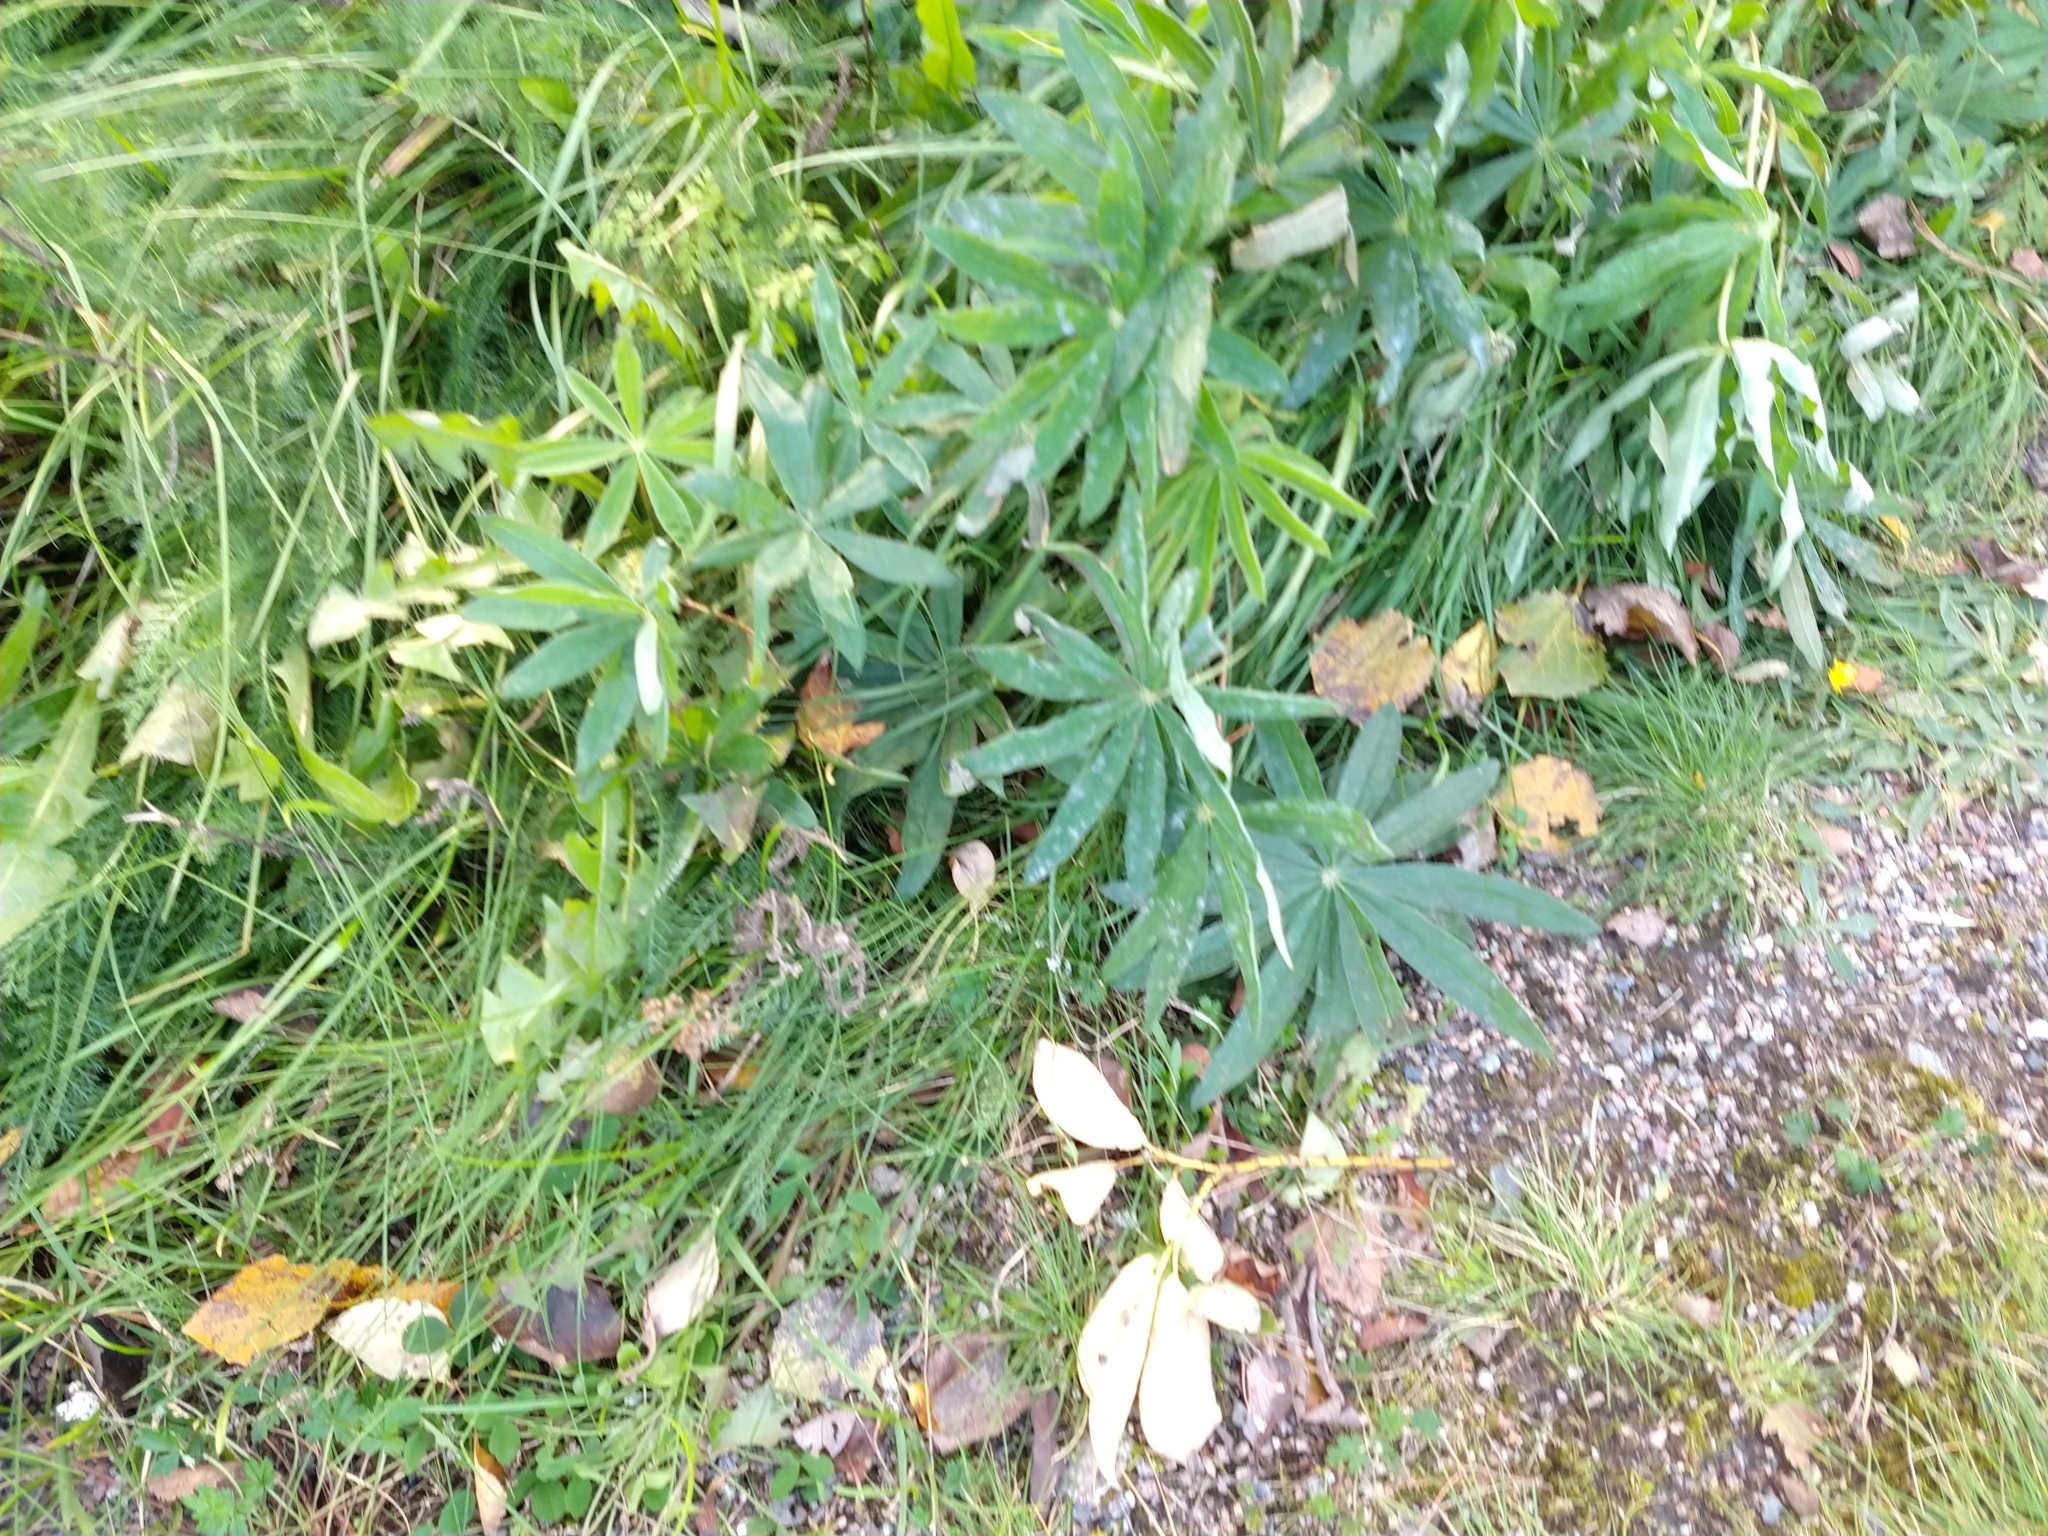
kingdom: Plantae
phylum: Tracheophyta
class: Magnoliopsida
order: Fabales
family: Fabaceae
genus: Lupinus
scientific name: Lupinus polyphyllus
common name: Garden lupin
